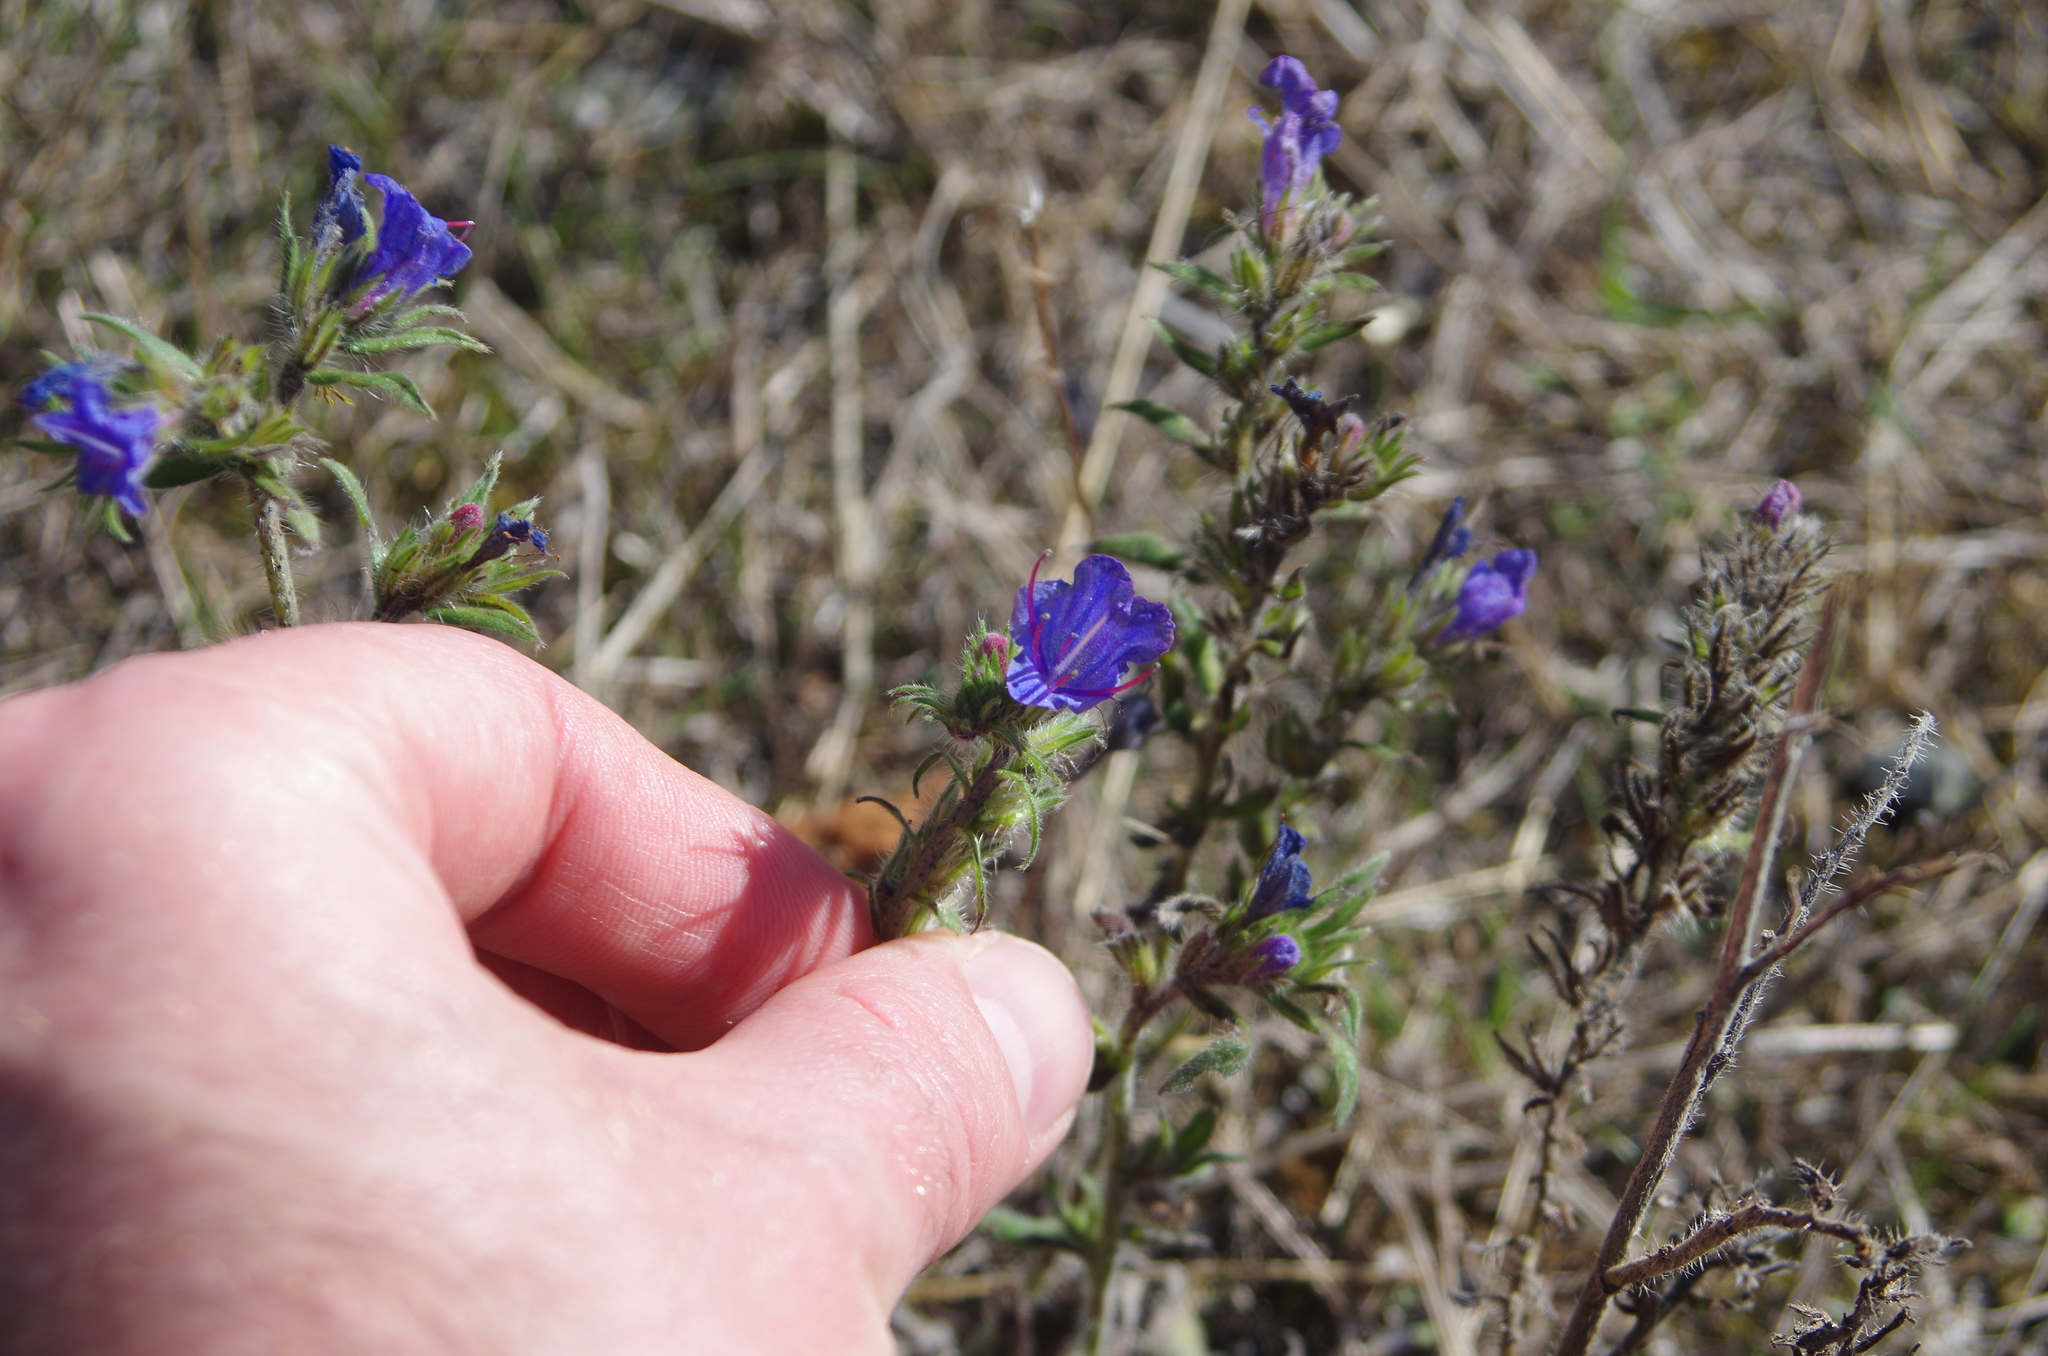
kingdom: Plantae
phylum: Tracheophyta
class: Magnoliopsida
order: Boraginales
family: Boraginaceae
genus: Echium
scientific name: Echium vulgare
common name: Common viper's bugloss
